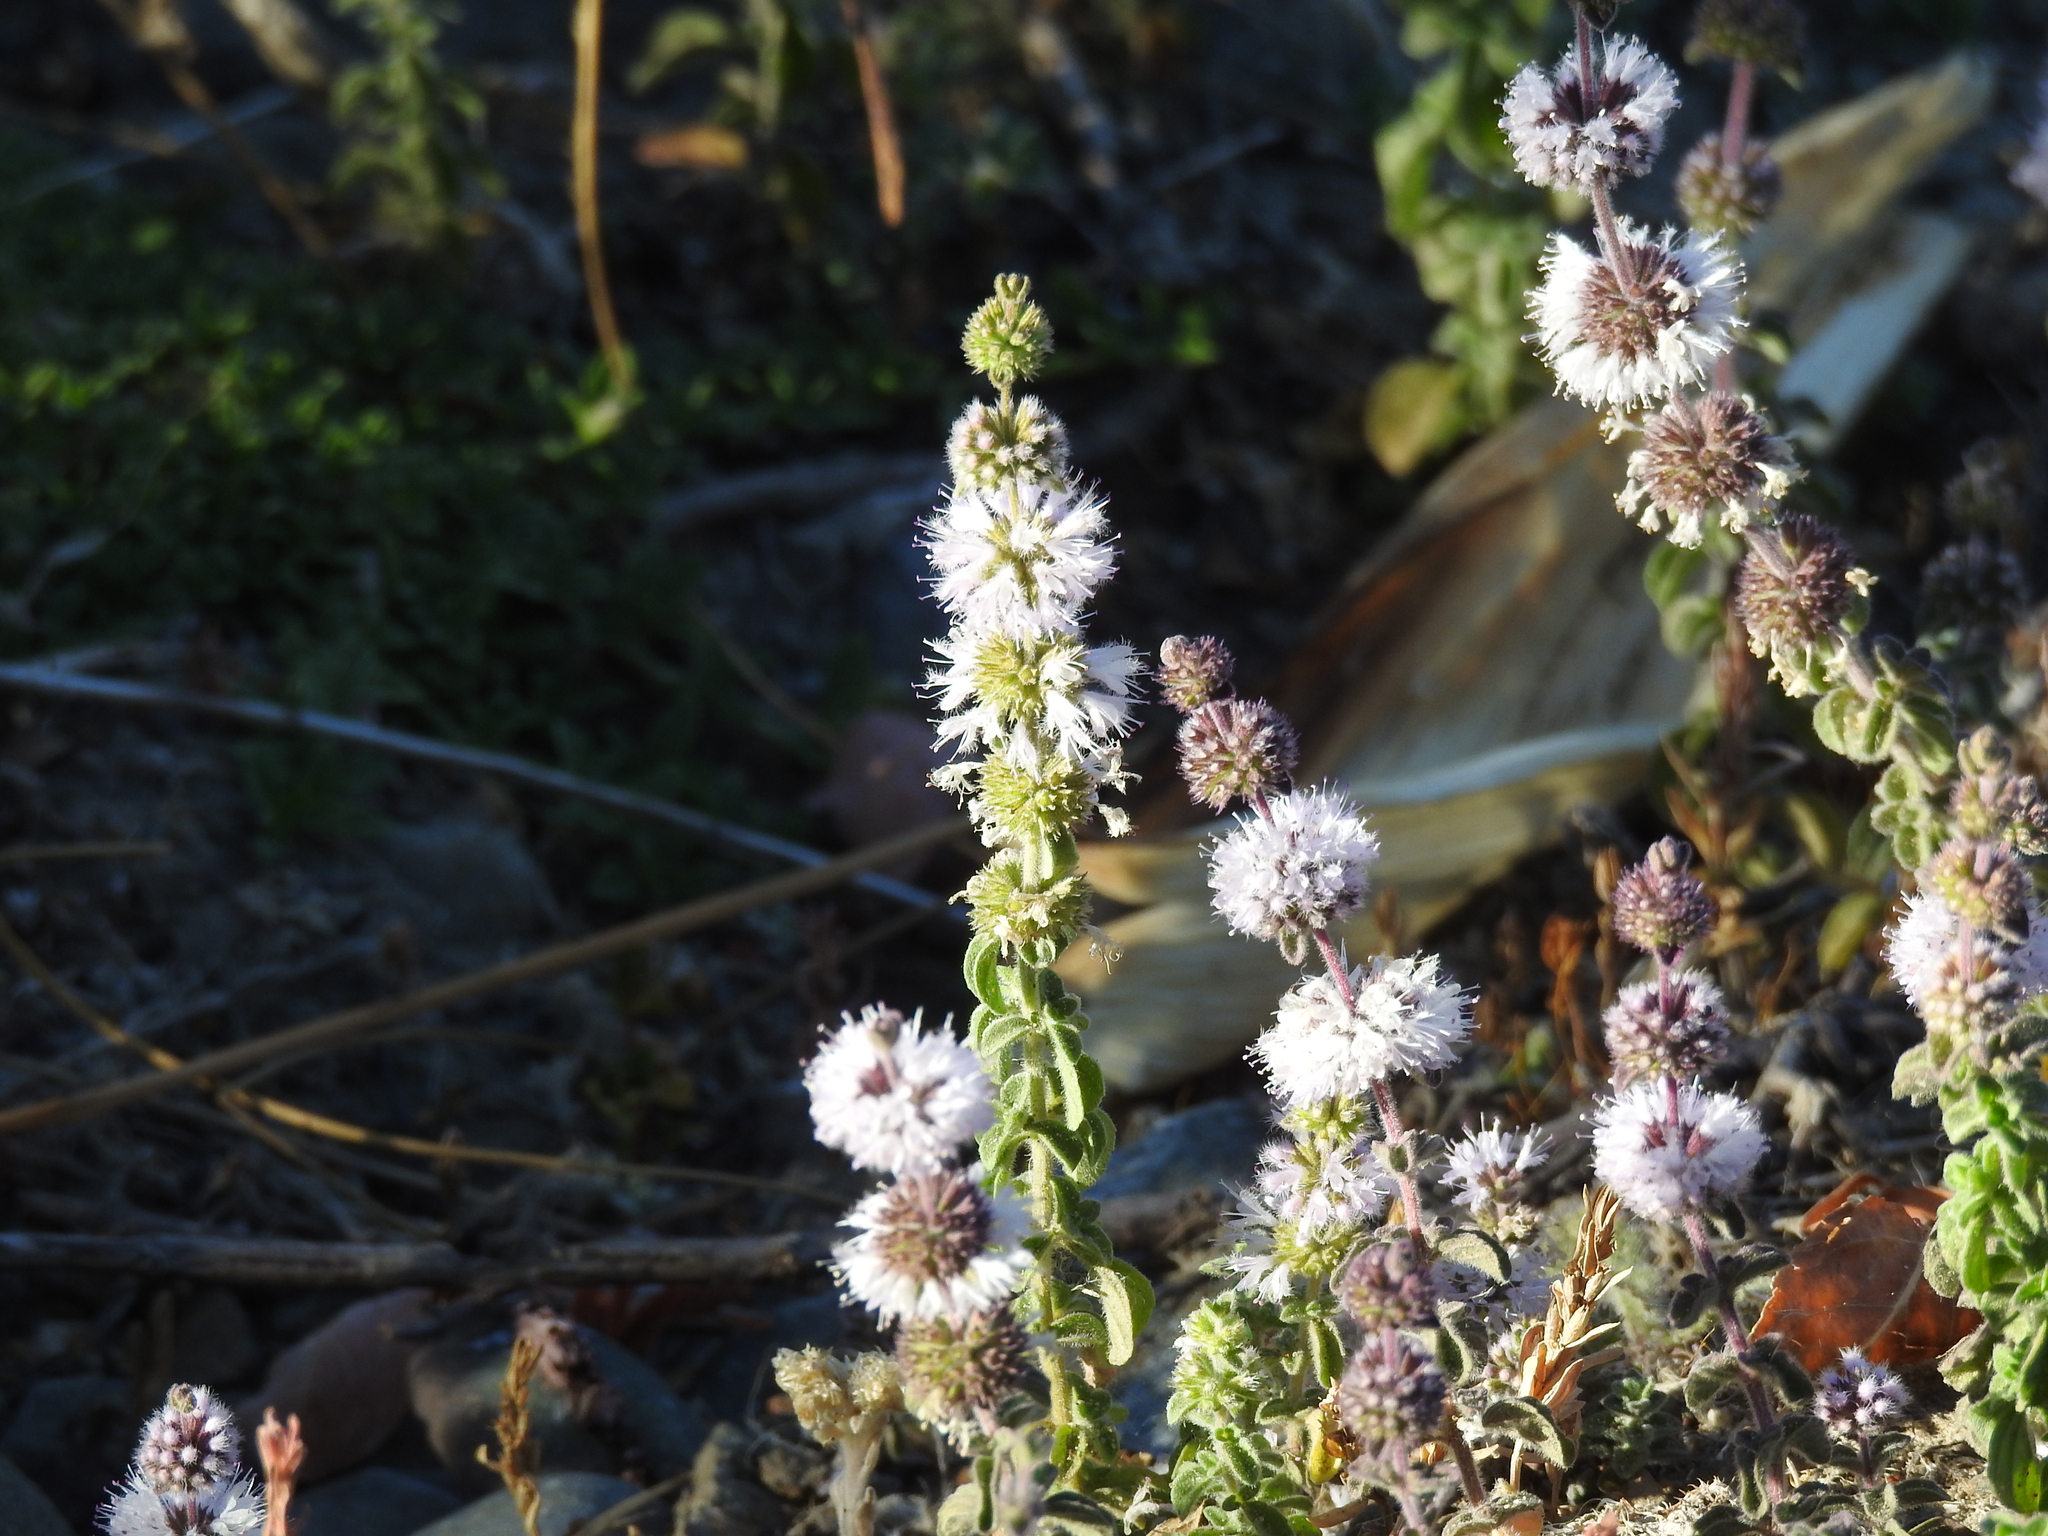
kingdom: Plantae
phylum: Tracheophyta
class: Magnoliopsida
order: Lamiales
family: Lamiaceae
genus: Mentha
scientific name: Mentha pulegium
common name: Pennyroyal
